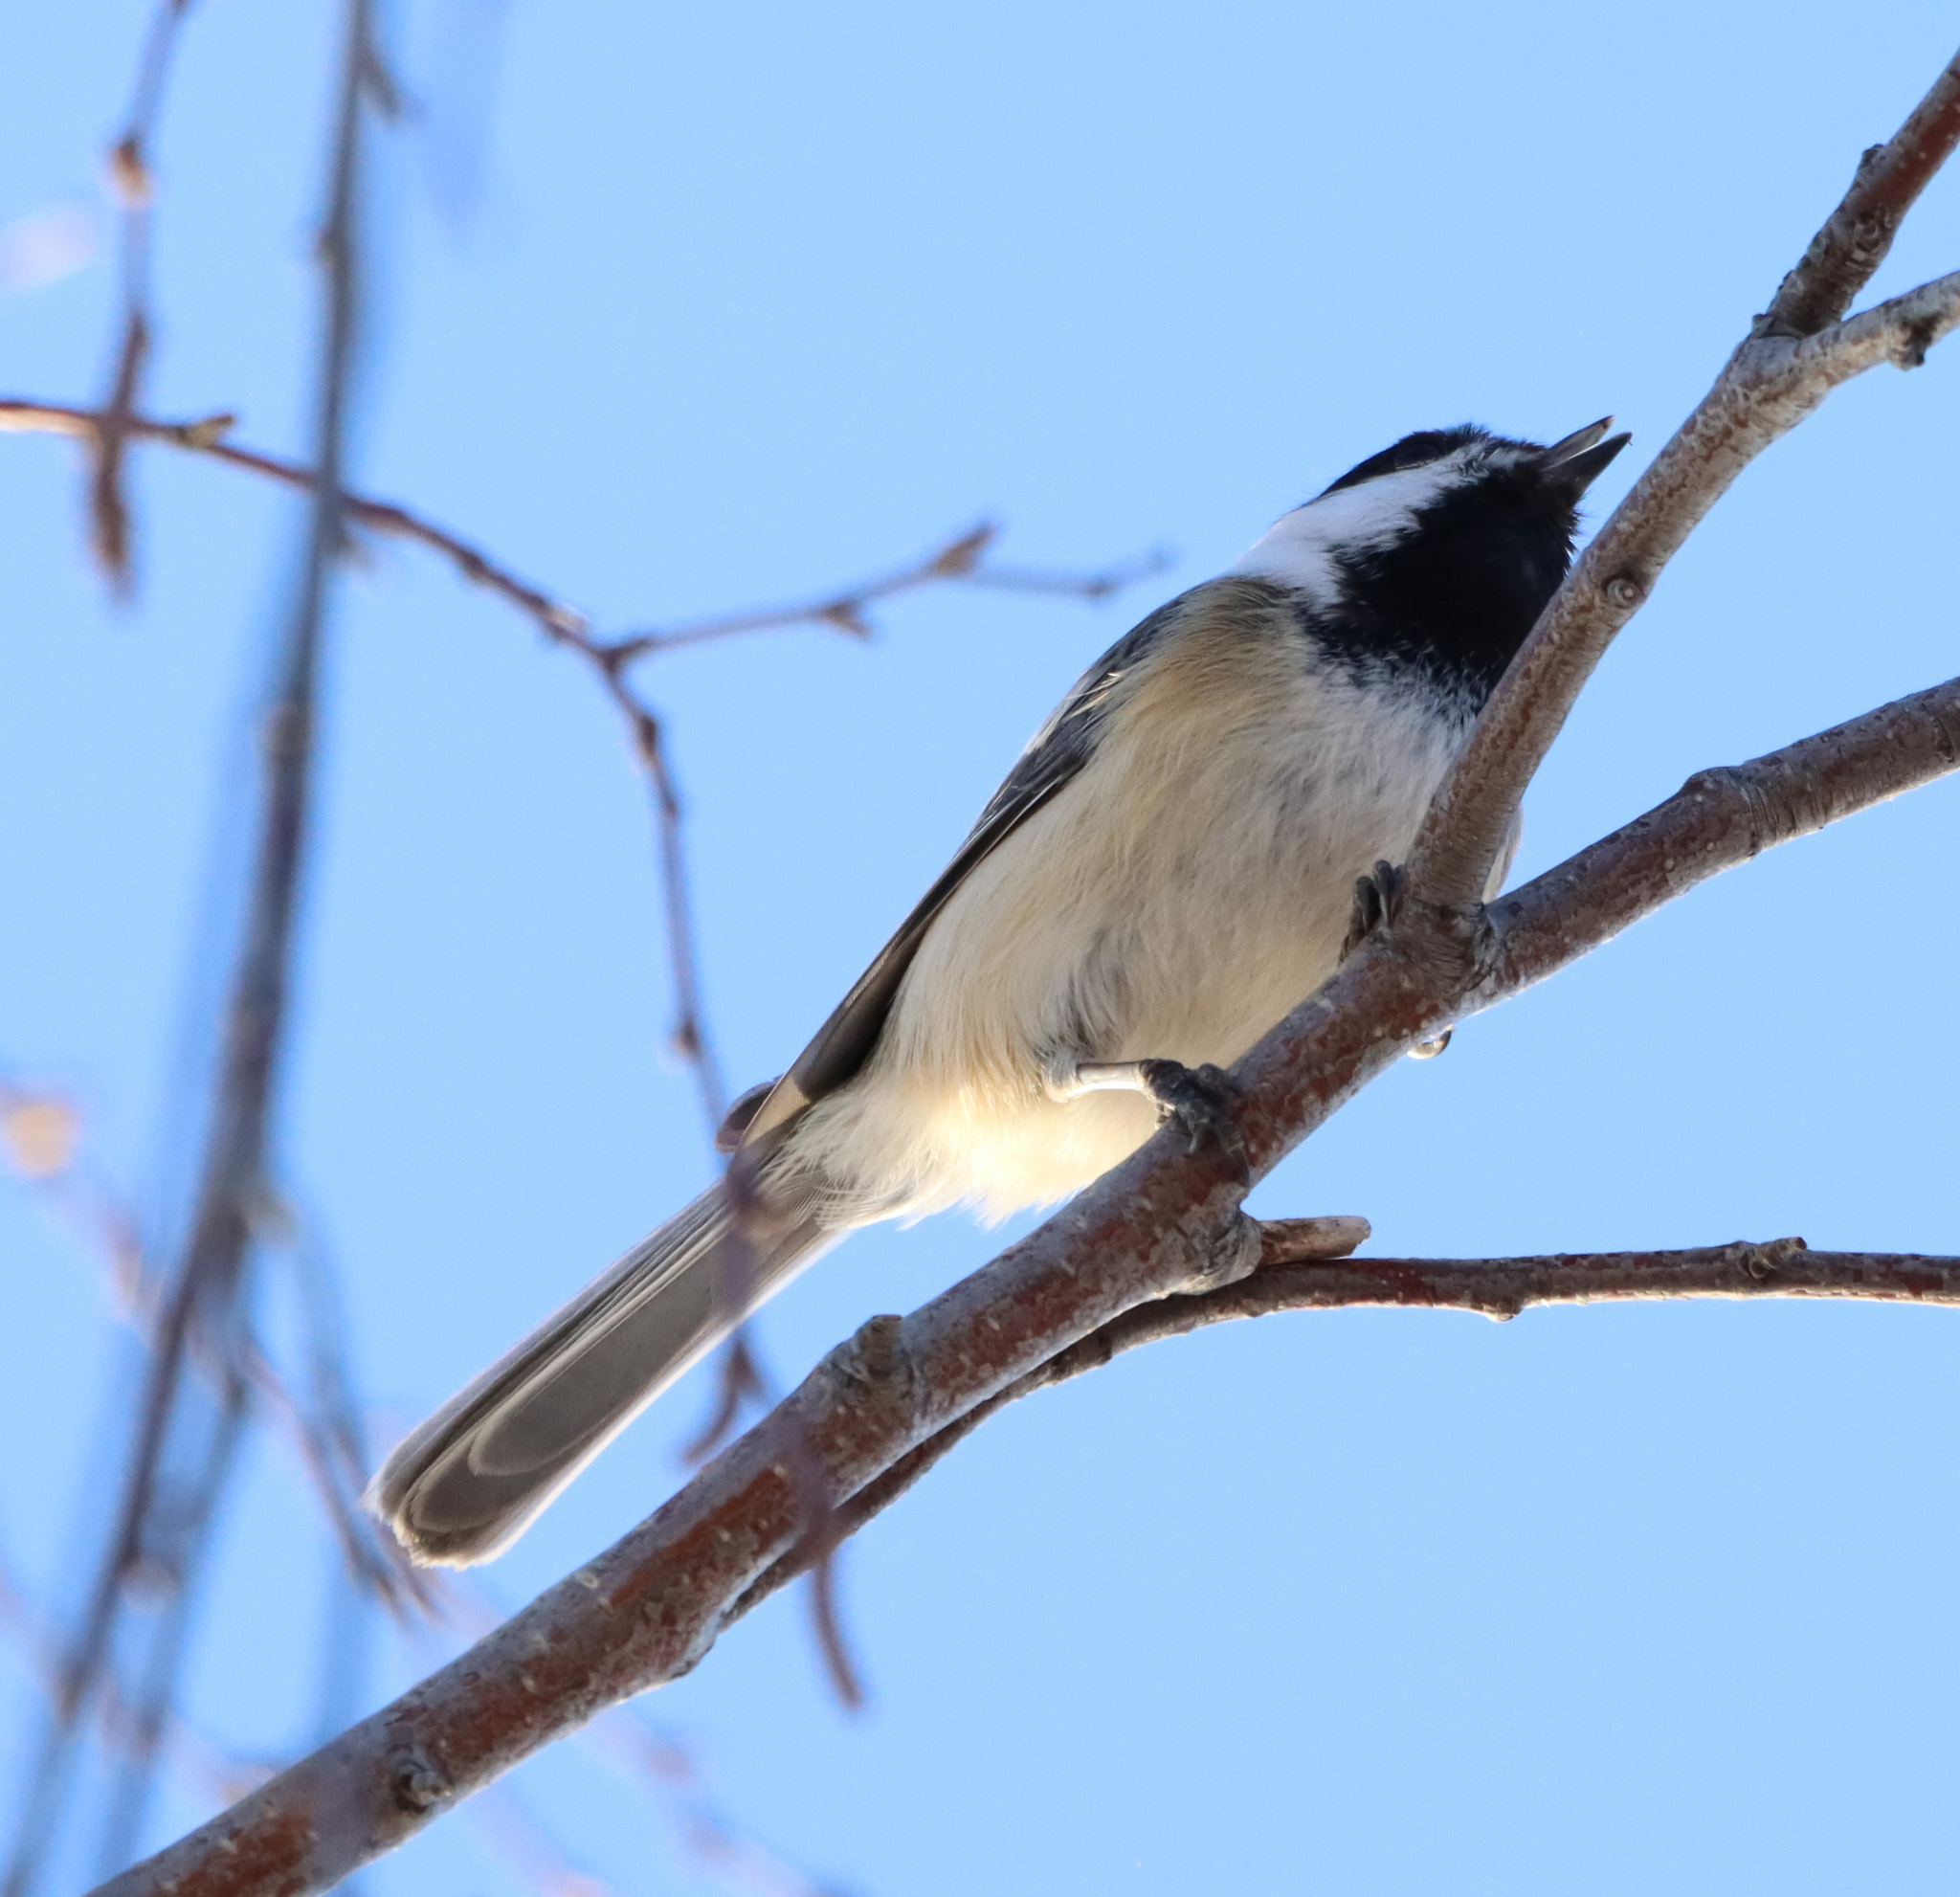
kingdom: Animalia
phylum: Chordata
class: Aves
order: Passeriformes
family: Paridae
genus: Poecile
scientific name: Poecile atricapillus
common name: Black-capped chickadee
